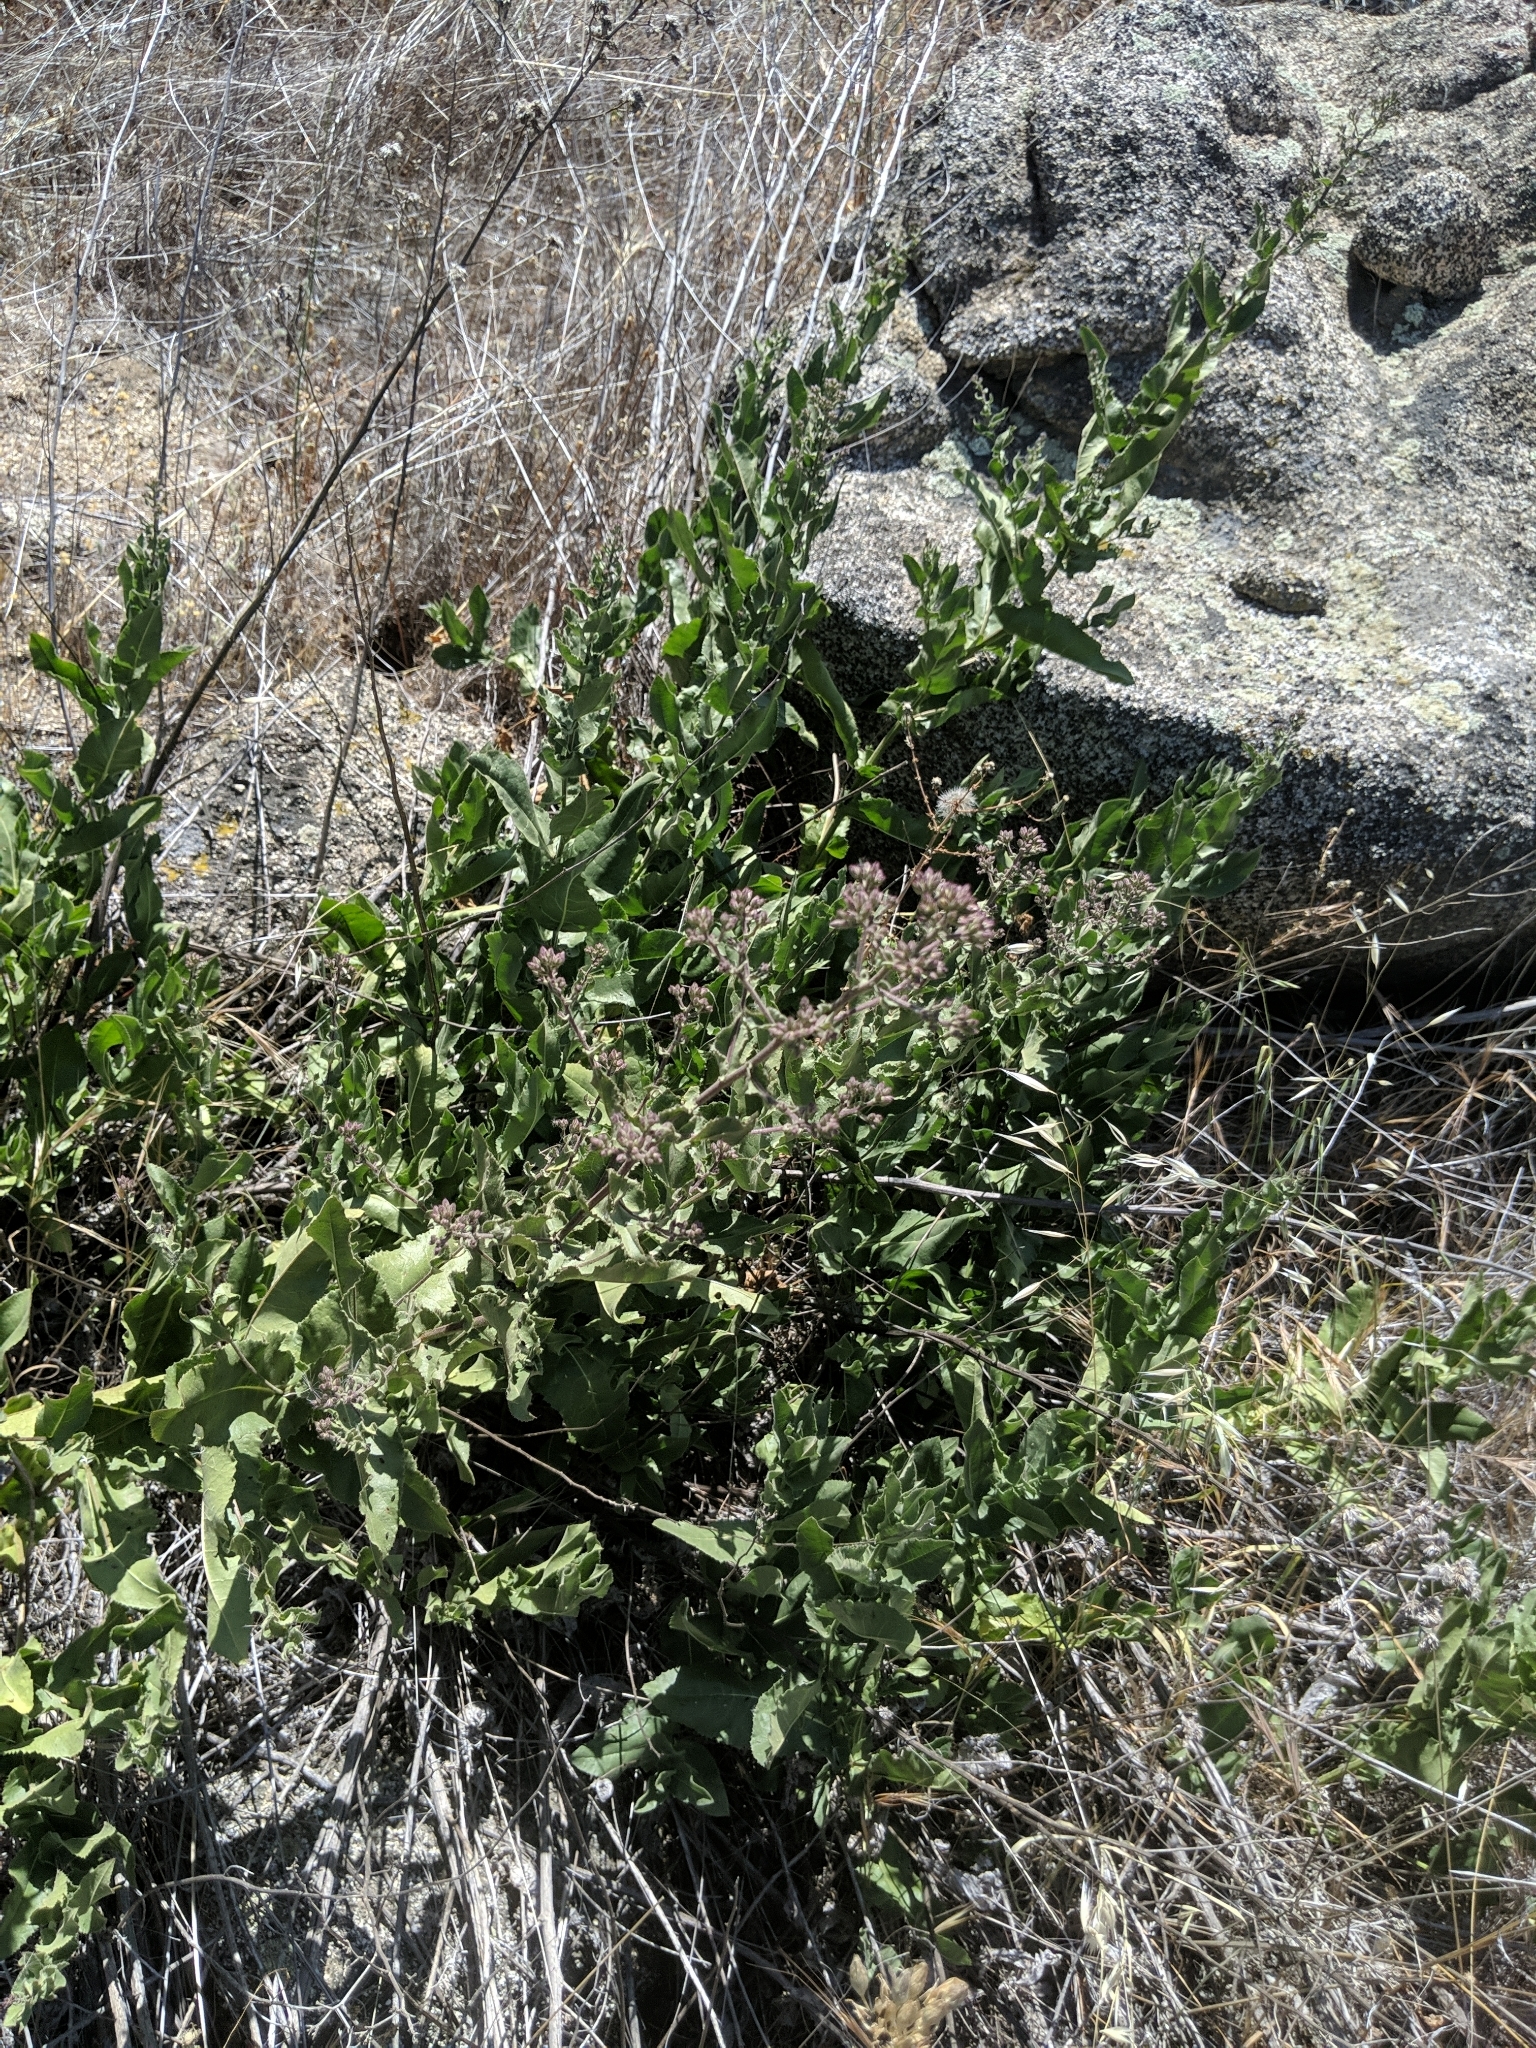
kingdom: Plantae
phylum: Tracheophyta
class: Magnoliopsida
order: Asterales
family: Asteraceae
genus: Acourtia
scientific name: Acourtia microcephala
